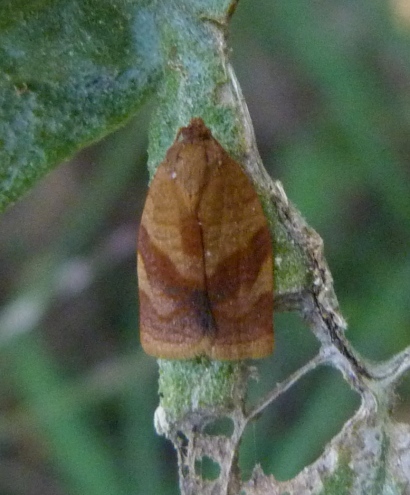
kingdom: Animalia
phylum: Arthropoda
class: Insecta
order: Lepidoptera
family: Tortricidae
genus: Cacoecimorpha
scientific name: Cacoecimorpha pronubana
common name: Carnation tortrix
